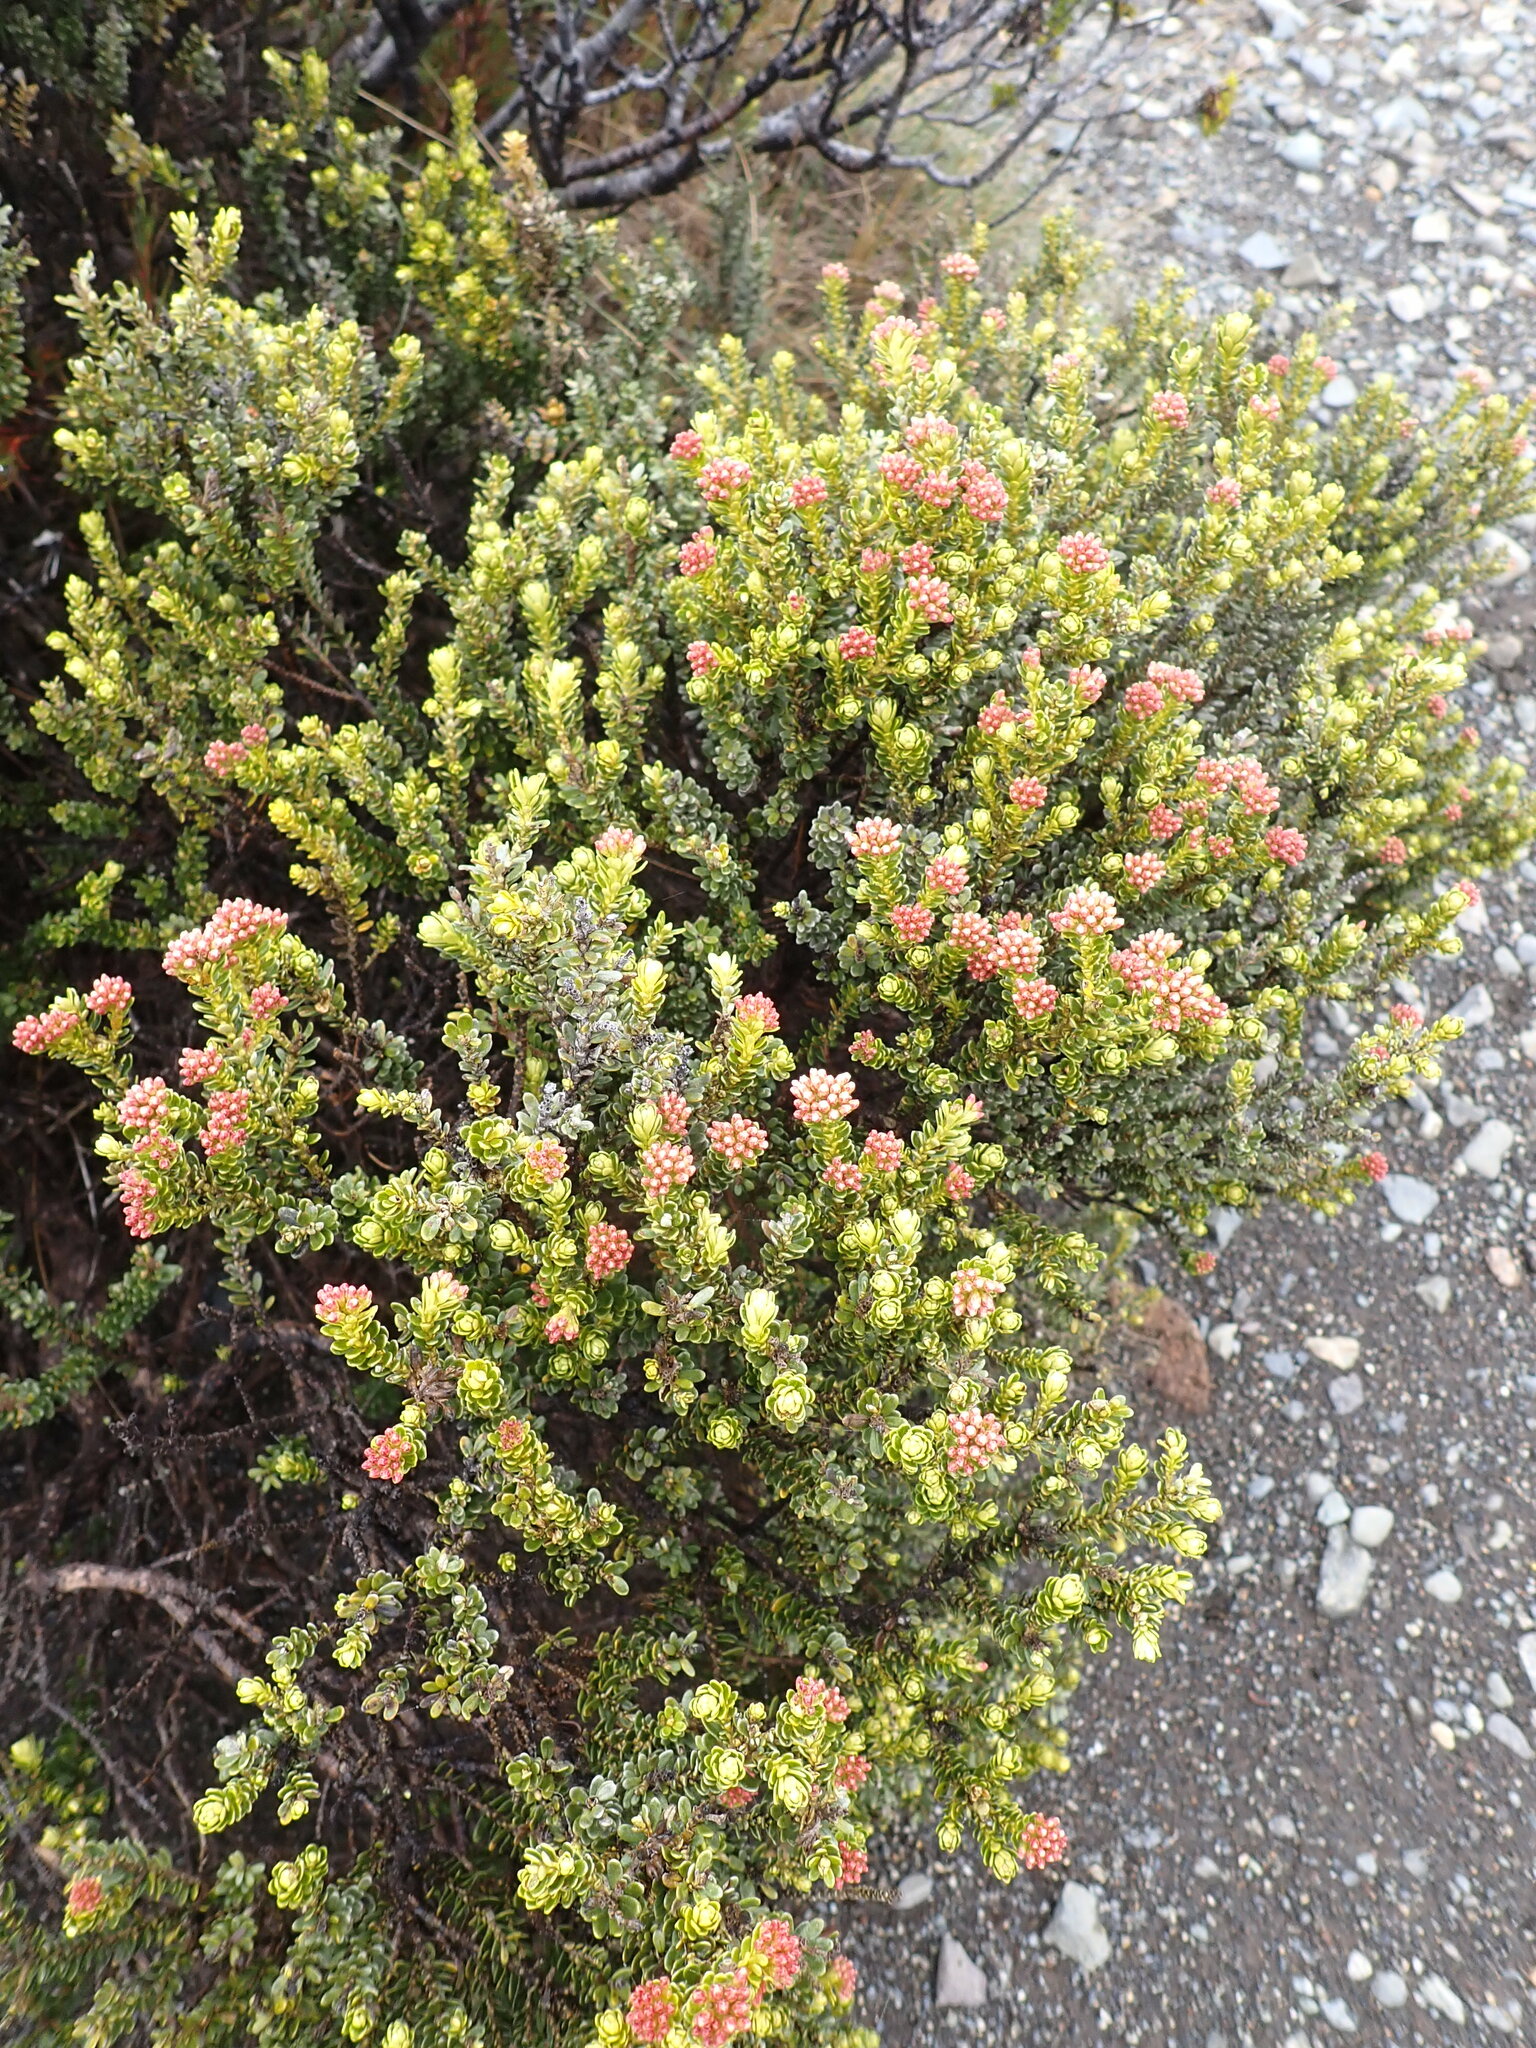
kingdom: Plantae
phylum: Tracheophyta
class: Magnoliopsida
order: Asterales
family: Asteraceae
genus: Ozothamnus
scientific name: Ozothamnus leptophyllus
